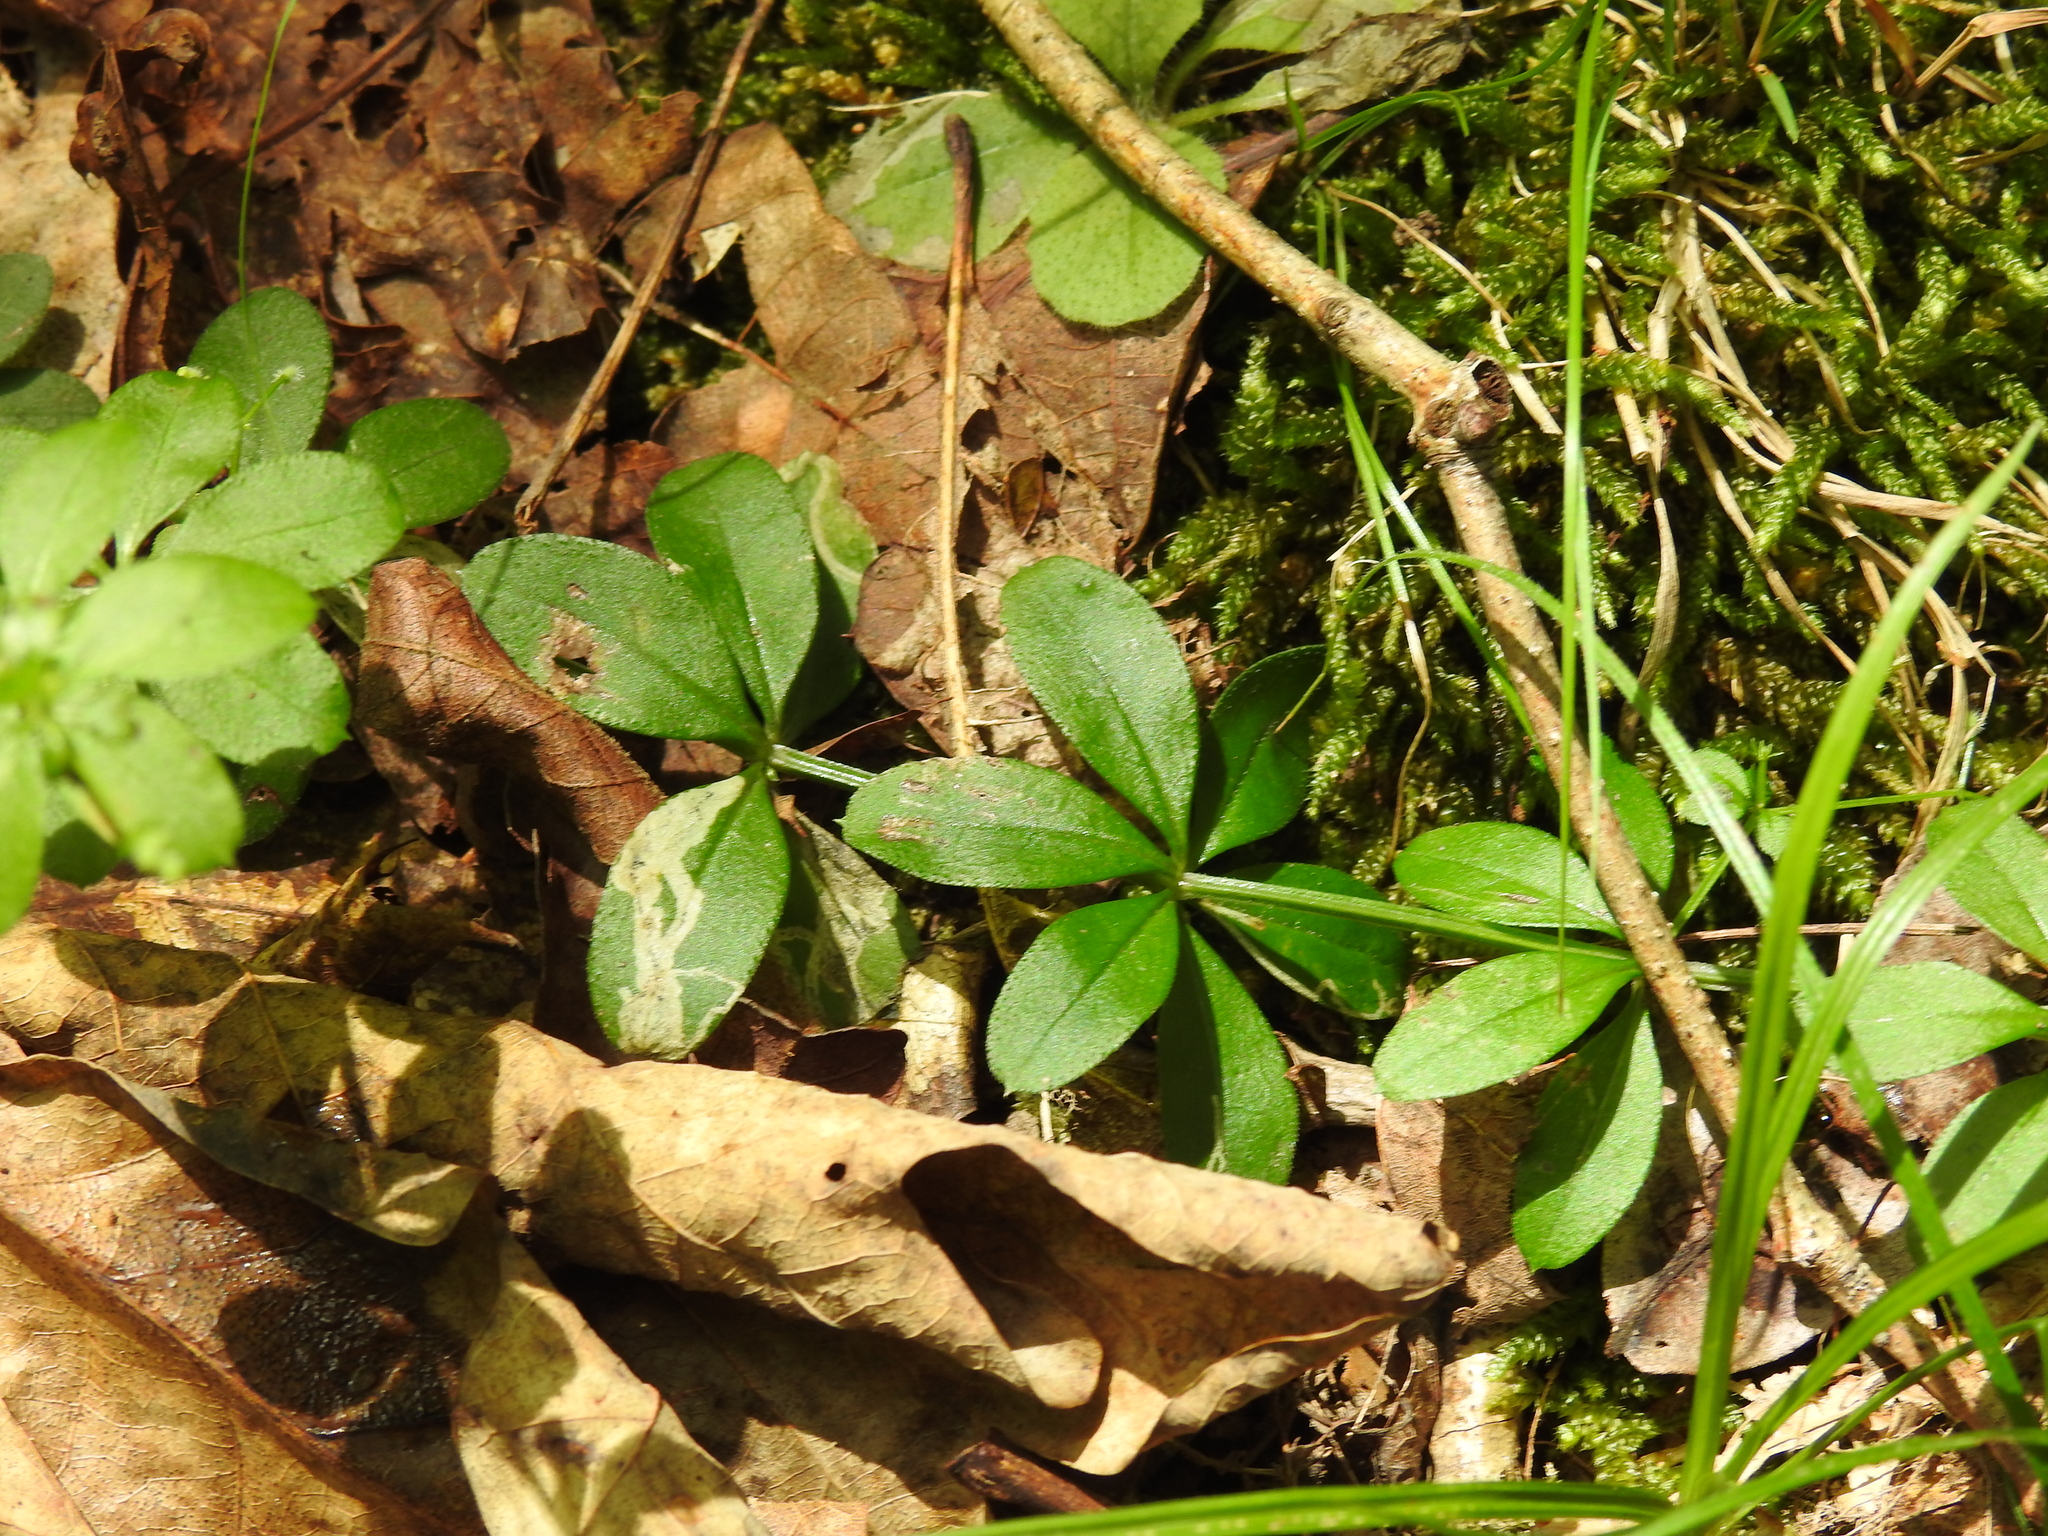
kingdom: Animalia
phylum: Arthropoda
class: Insecta
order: Diptera
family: Agromyzidae
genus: Liriomyza
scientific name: Liriomyza galiivora
